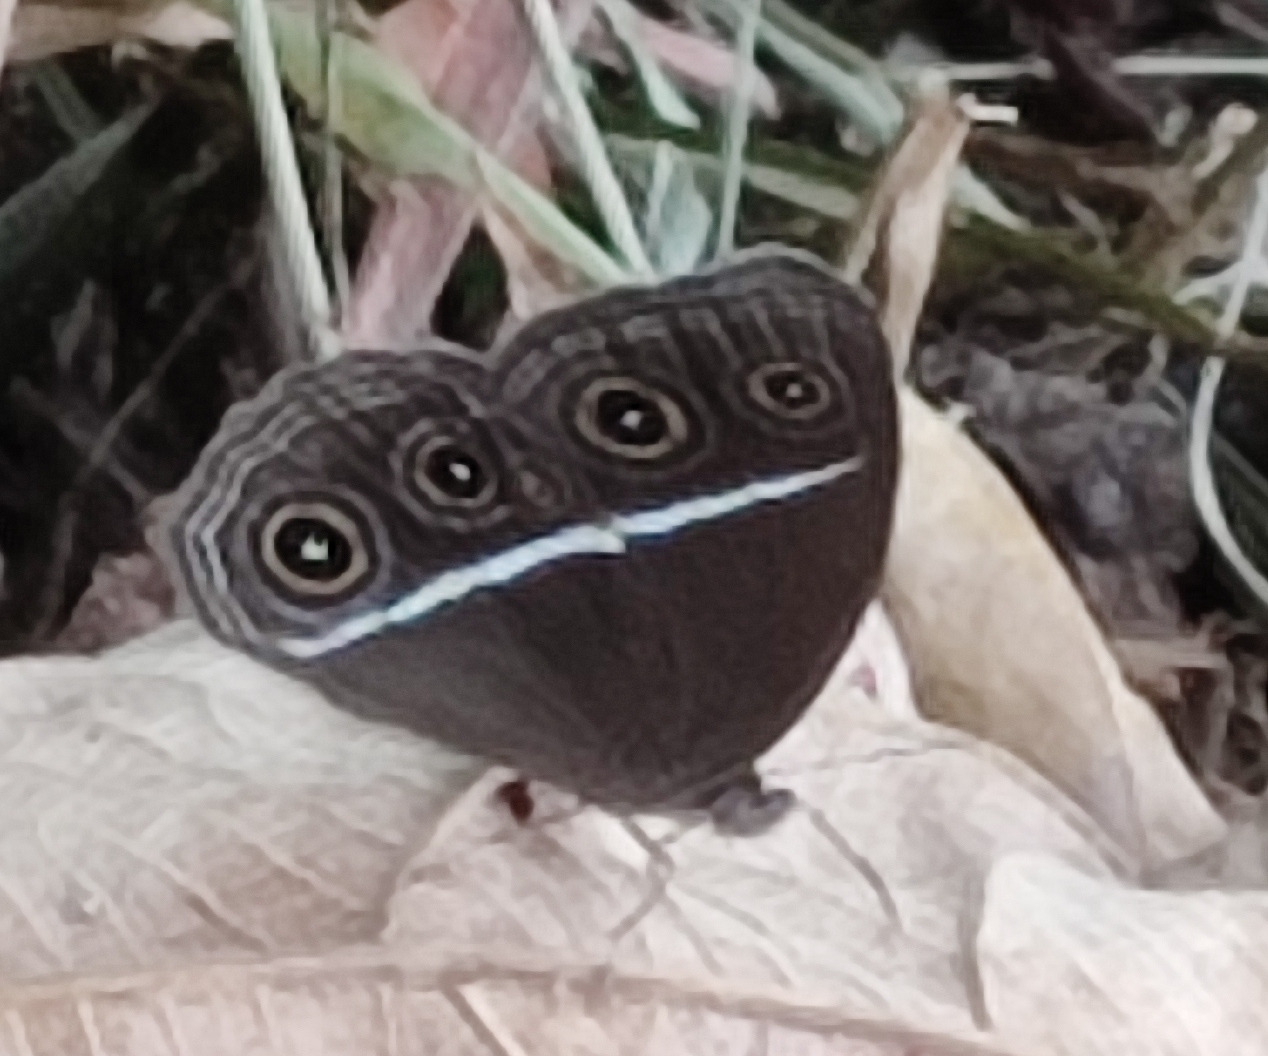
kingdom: Animalia
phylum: Arthropoda
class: Insecta
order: Lepidoptera
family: Nymphalidae
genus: Orsotriaena
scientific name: Orsotriaena medus
